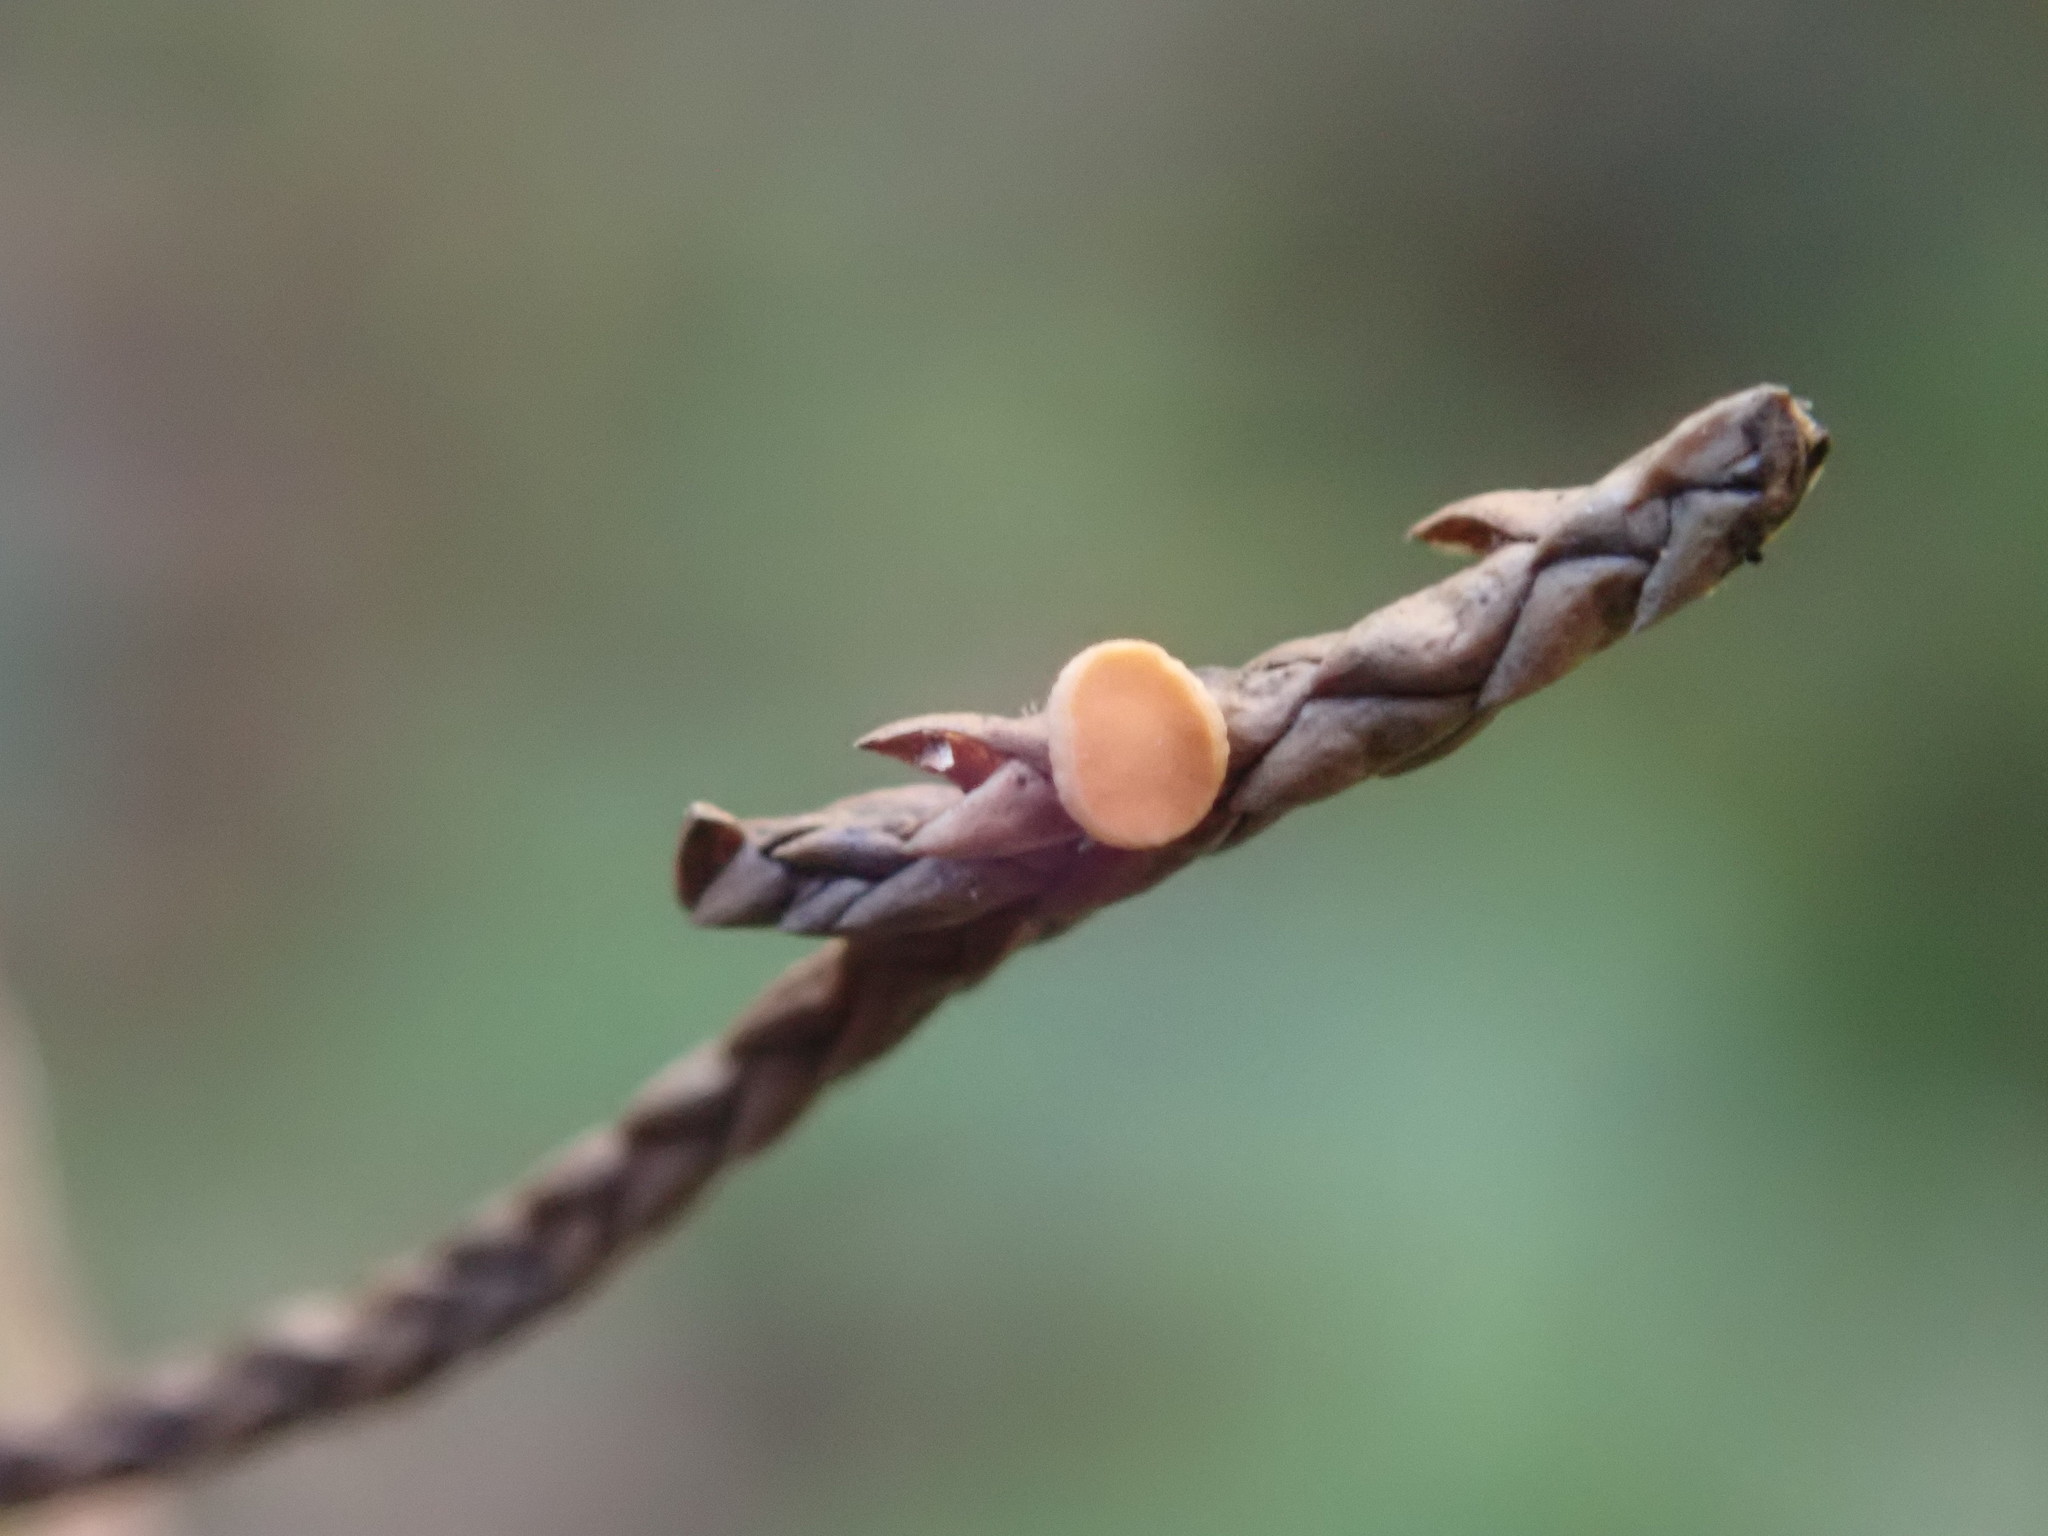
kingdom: Fungi
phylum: Ascomycota
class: Pezizomycetes
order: Pezizales
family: Sarcoscyphaceae
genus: Pithya
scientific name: Pithya cupressina
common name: Juniper disco
